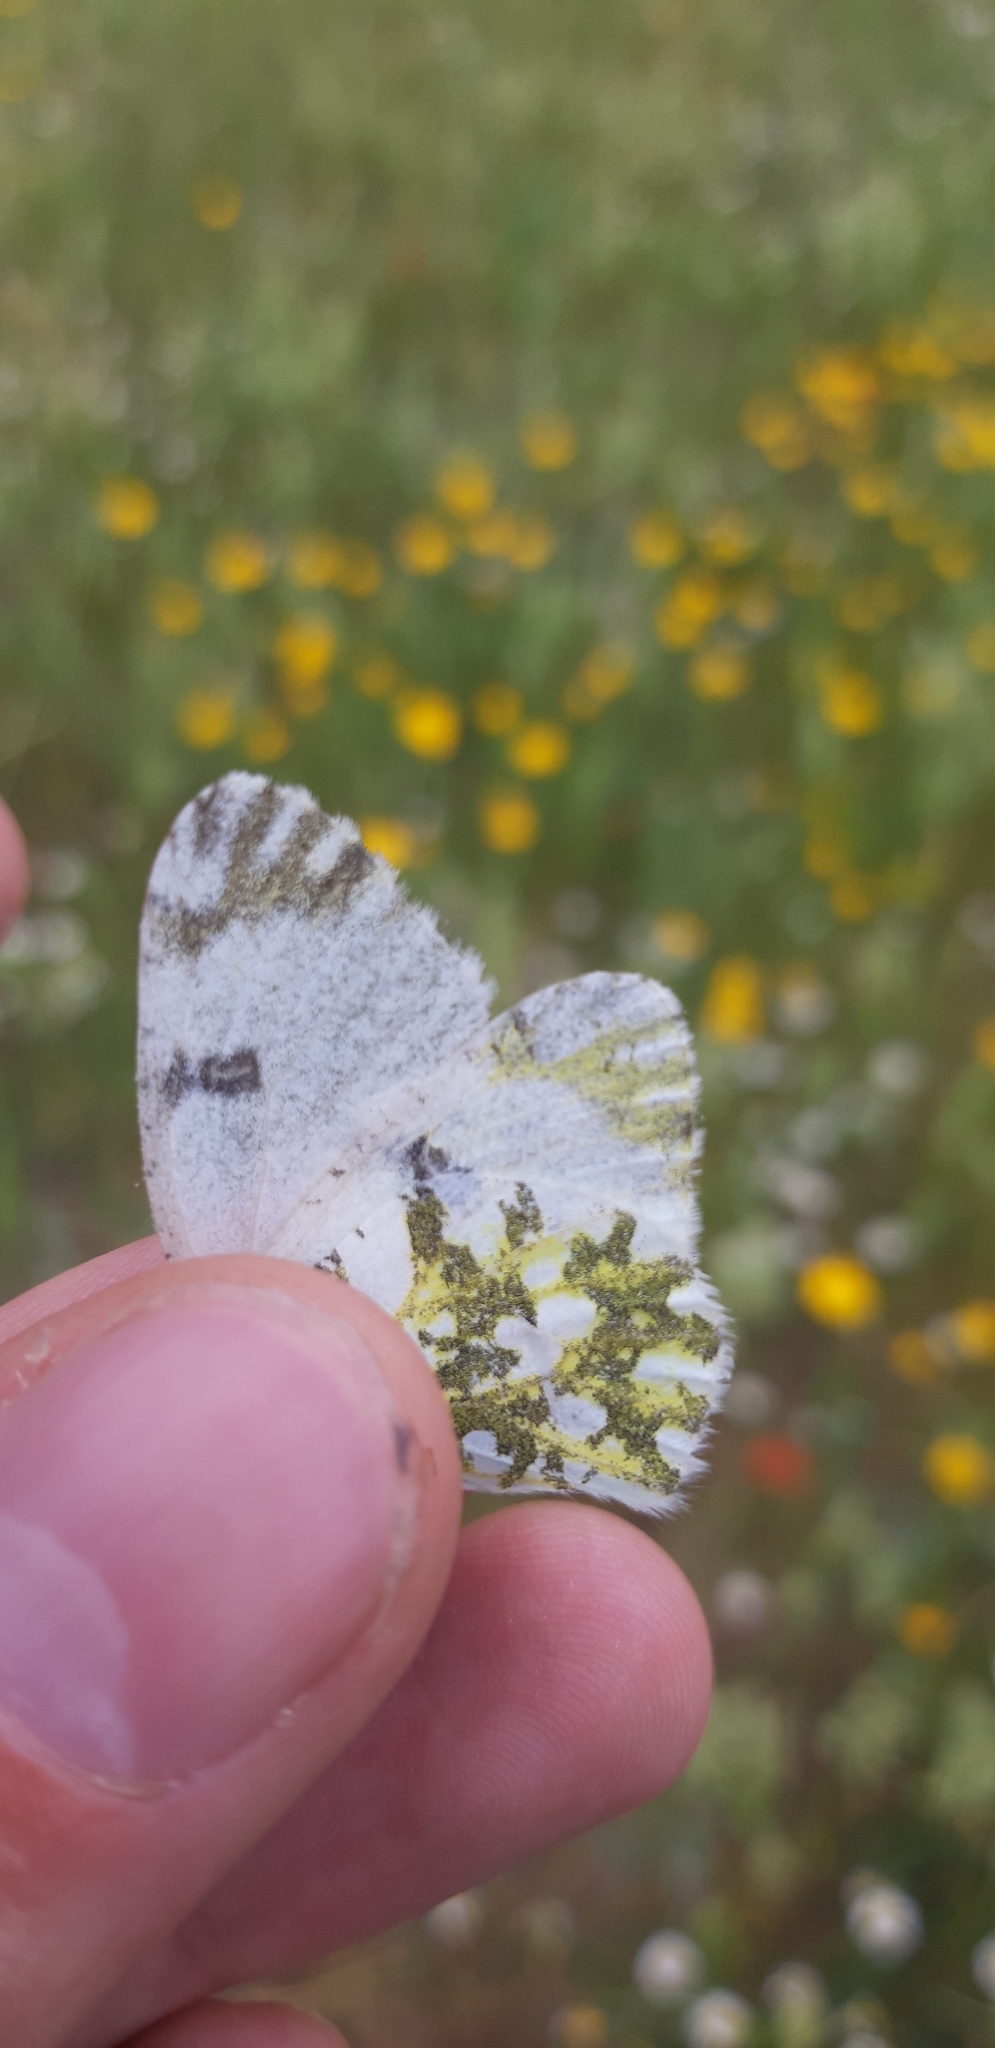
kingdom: Animalia
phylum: Arthropoda
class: Insecta
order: Lepidoptera
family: Pieridae
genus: Euchloe
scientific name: Euchloe ausonia
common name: Eastern dappled white
